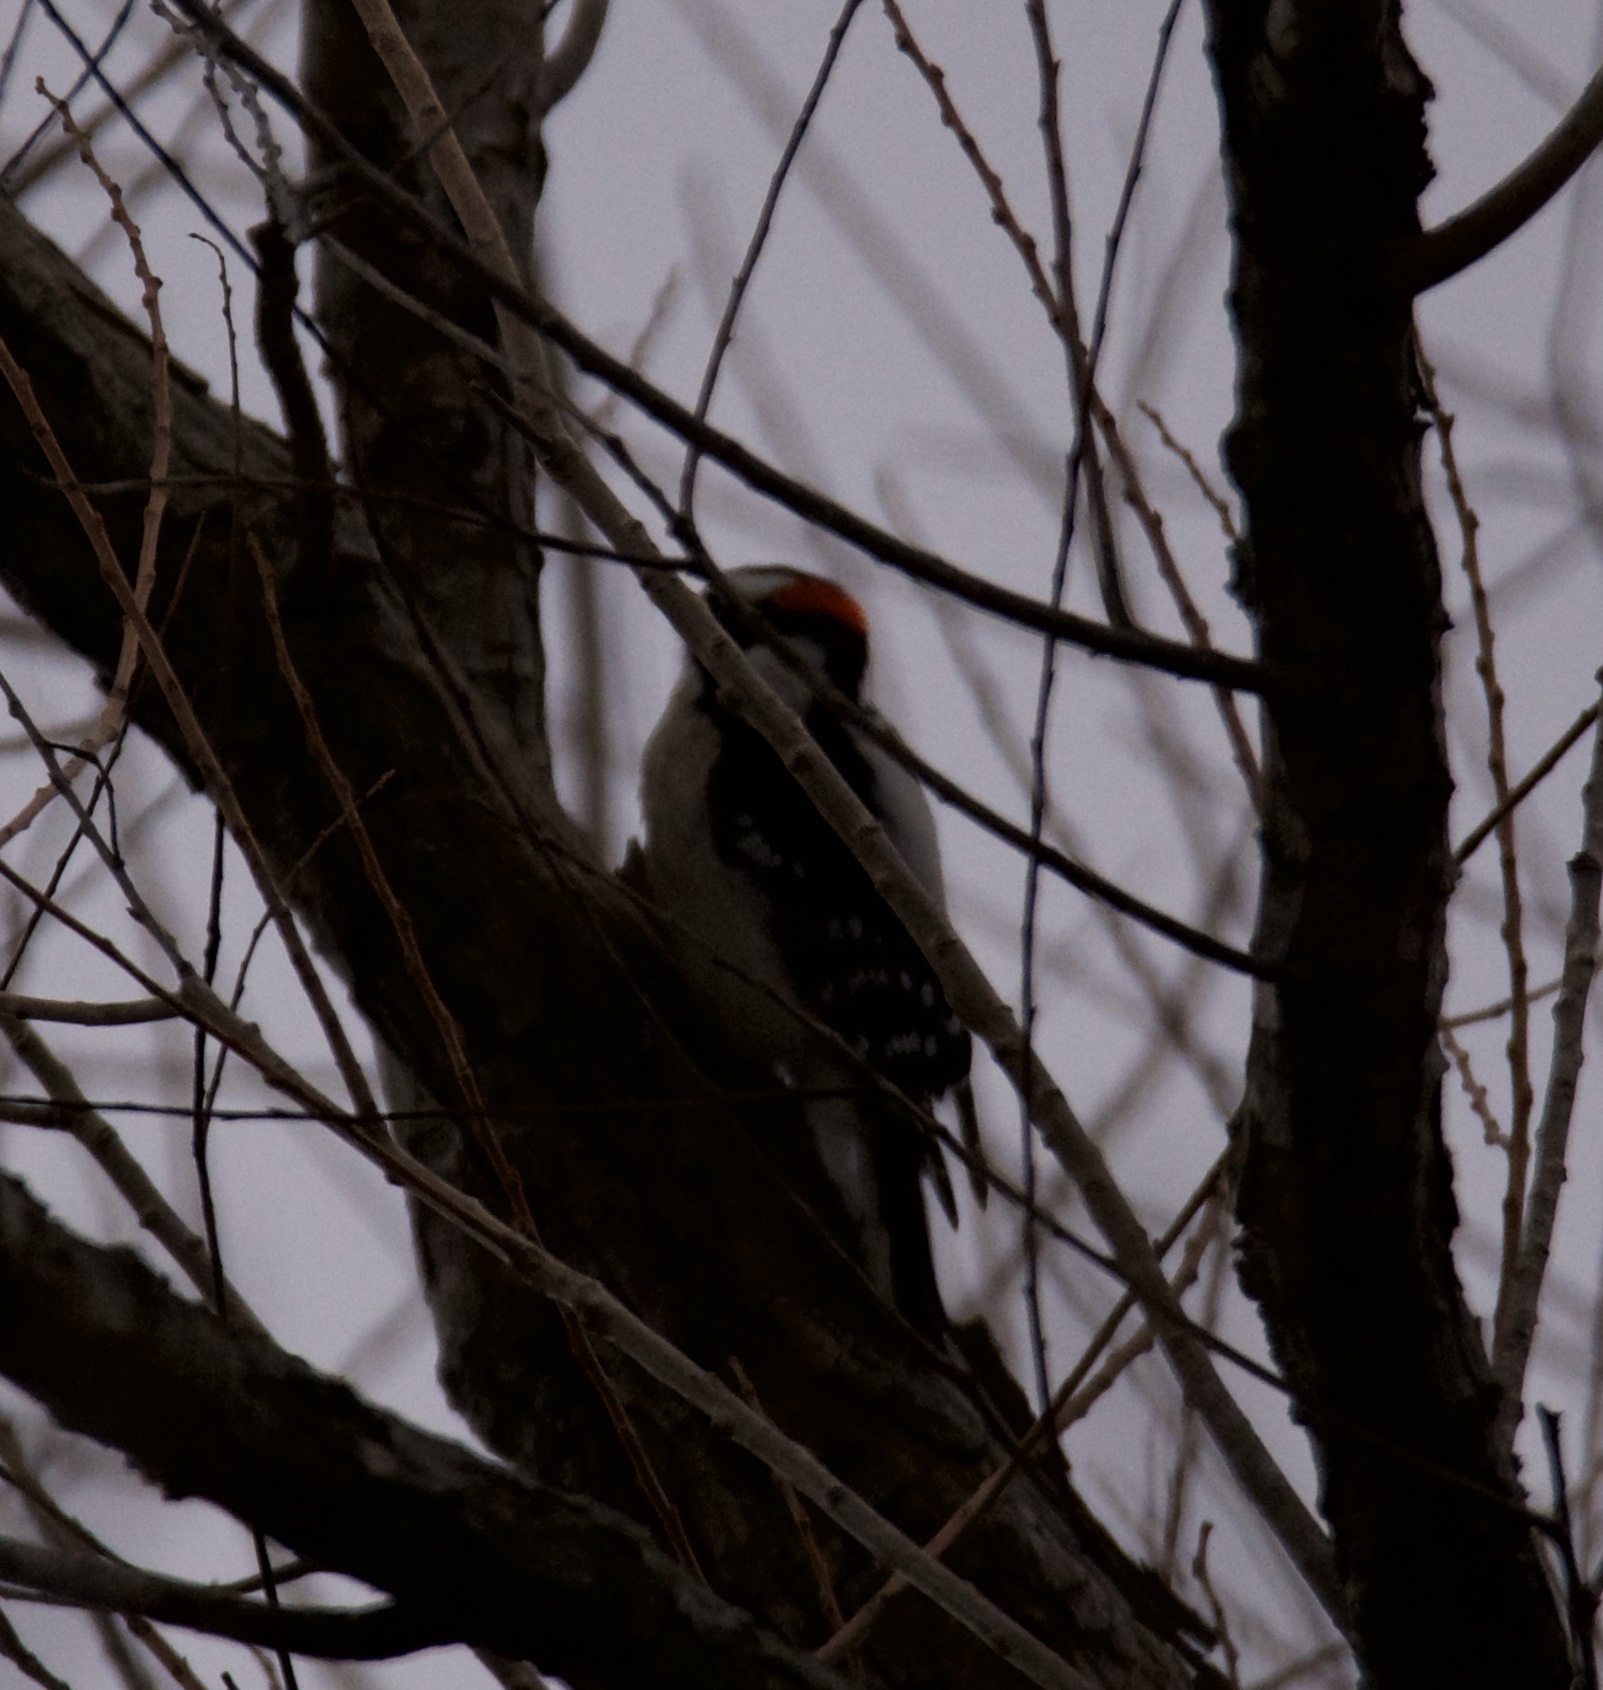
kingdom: Animalia
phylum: Chordata
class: Aves
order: Piciformes
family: Picidae
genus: Dryobates
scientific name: Dryobates pubescens
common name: Downy woodpecker
